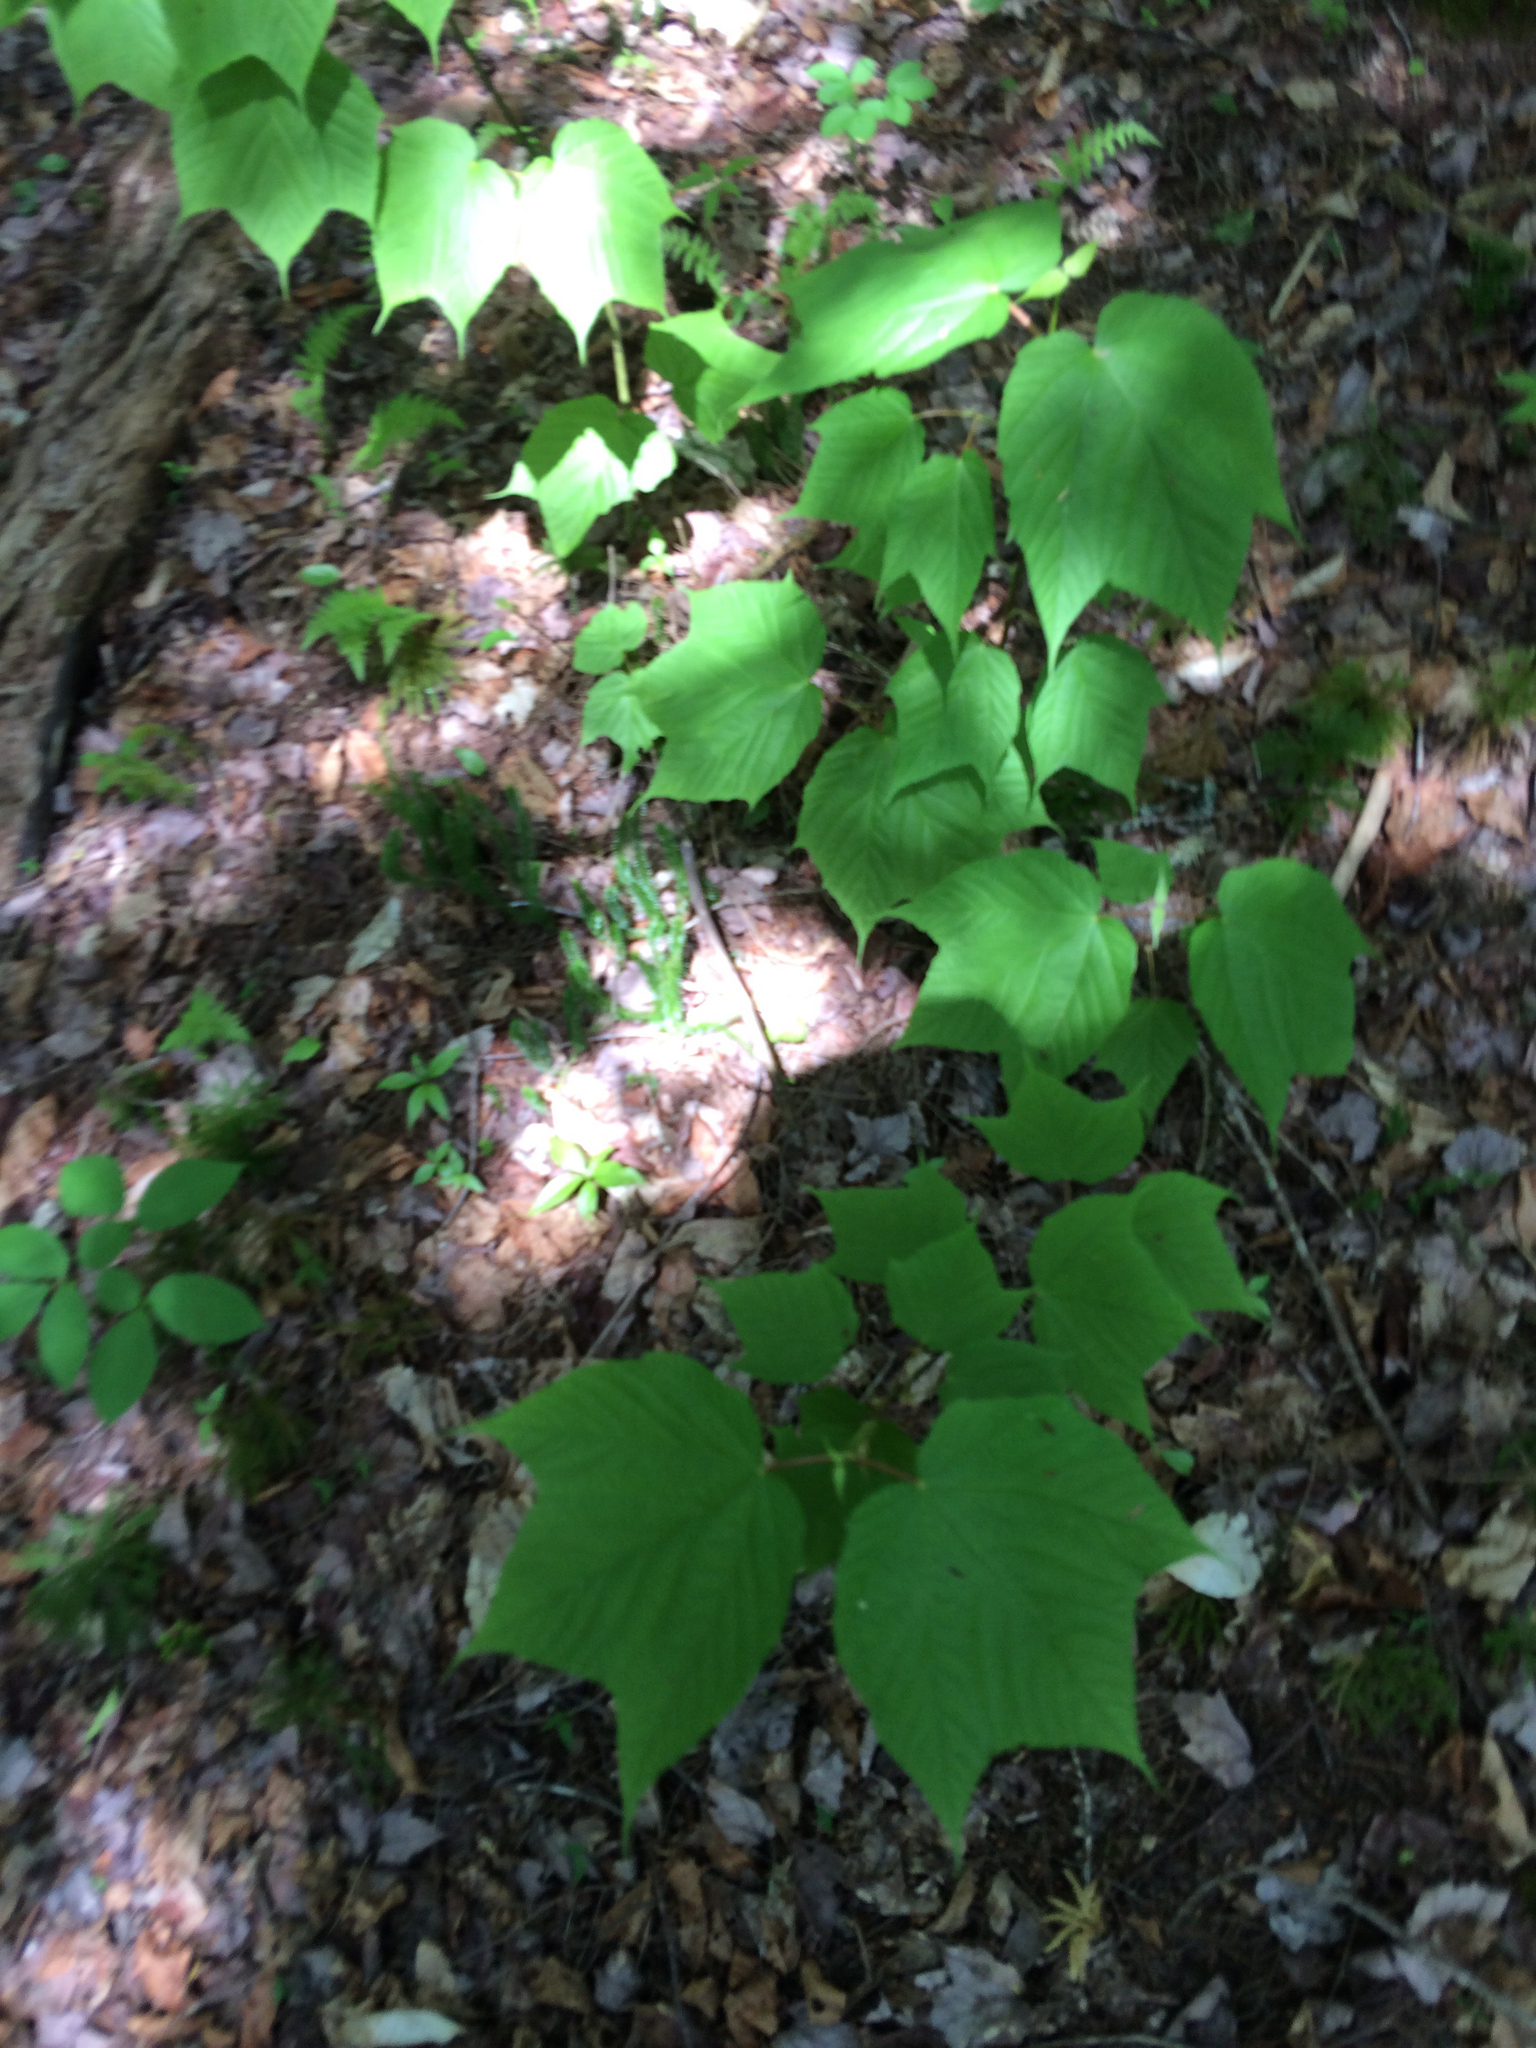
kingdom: Plantae
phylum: Tracheophyta
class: Magnoliopsida
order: Sapindales
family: Sapindaceae
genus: Acer
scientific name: Acer pensylvanicum
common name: Moosewood
